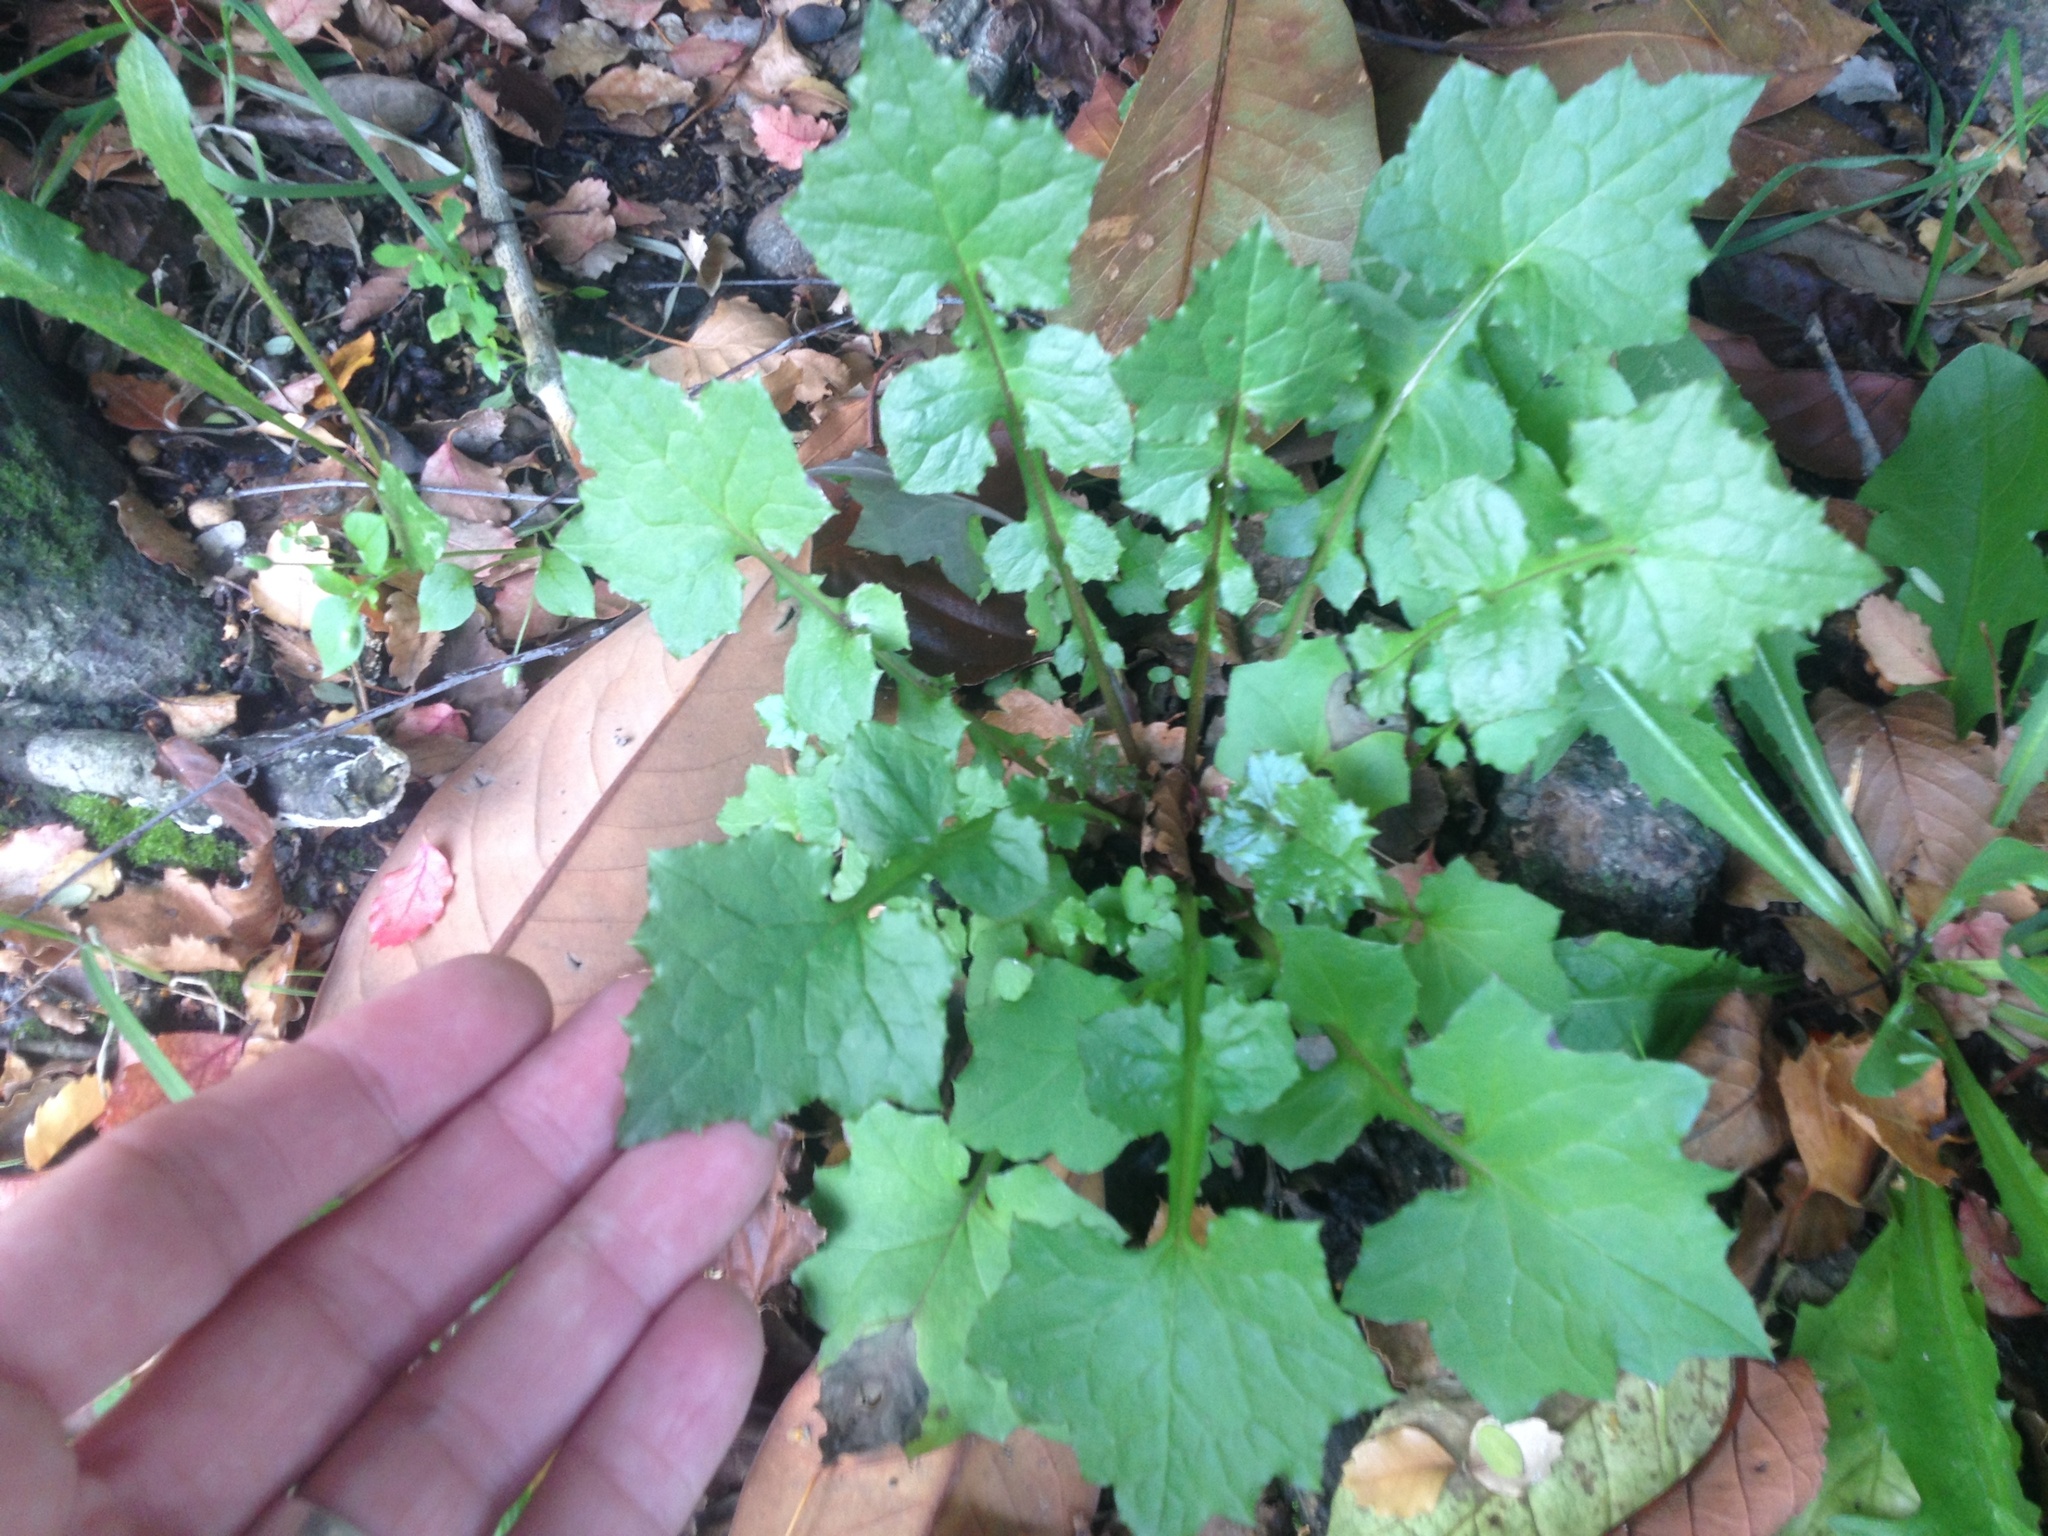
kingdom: Plantae
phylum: Tracheophyta
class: Magnoliopsida
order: Asterales
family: Asteraceae
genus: Mycelis
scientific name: Mycelis muralis
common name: Wall lettuce
